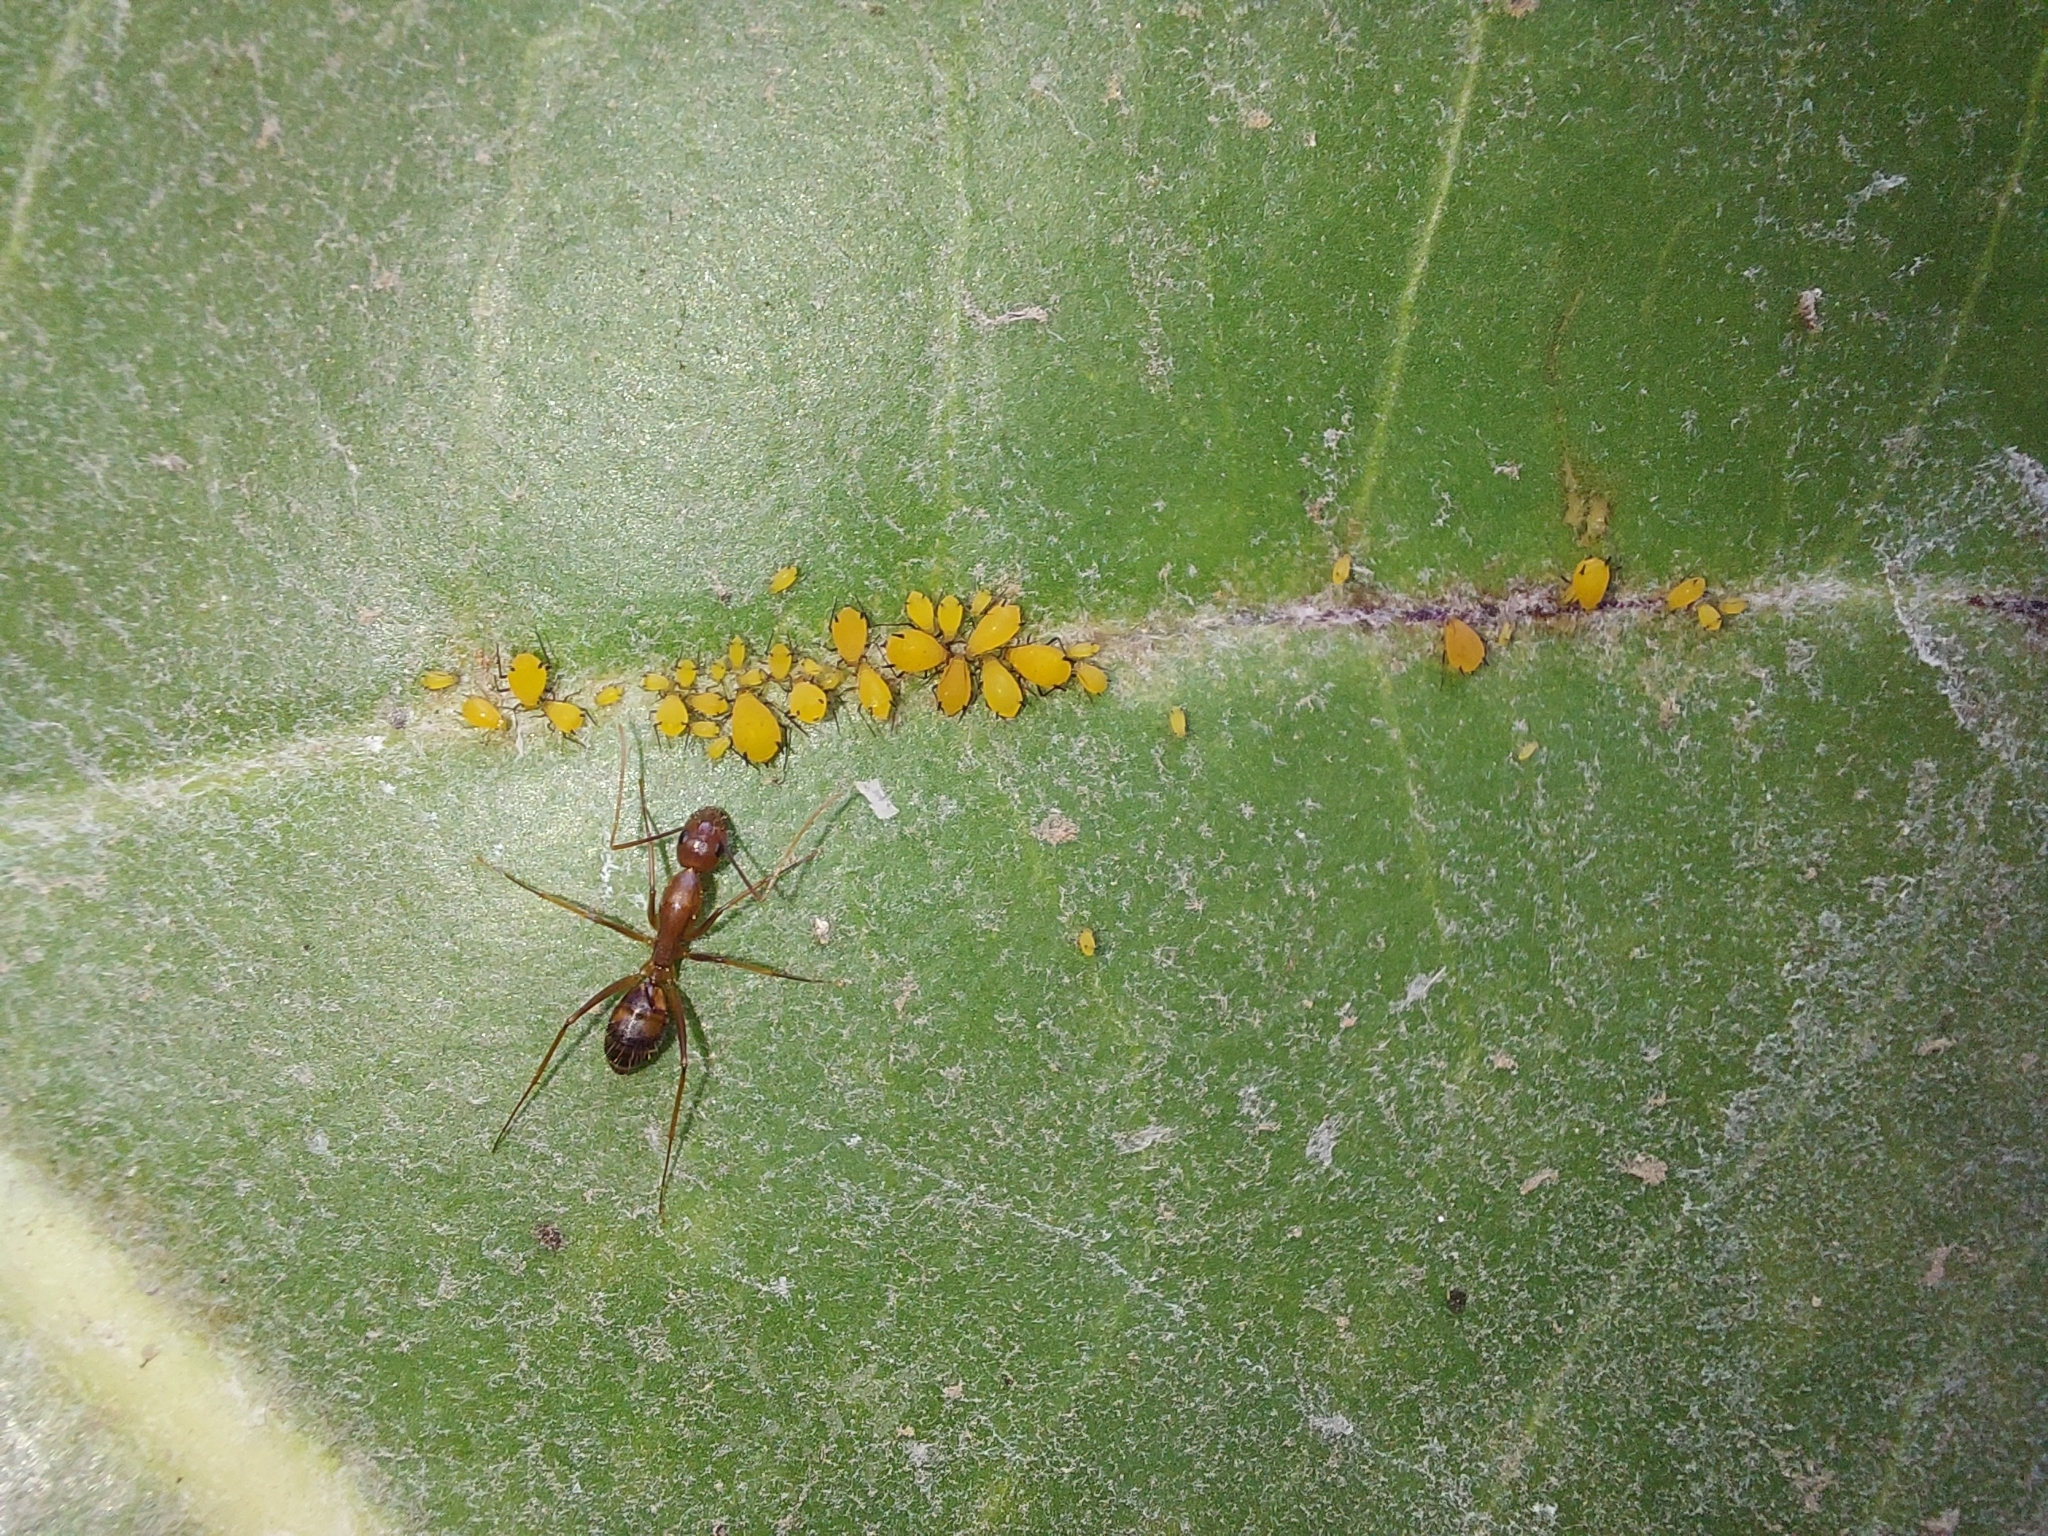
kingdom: Animalia
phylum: Arthropoda
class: Insecta
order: Hemiptera
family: Aphididae
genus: Aphis
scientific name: Aphis nerii
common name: Oleander aphid
